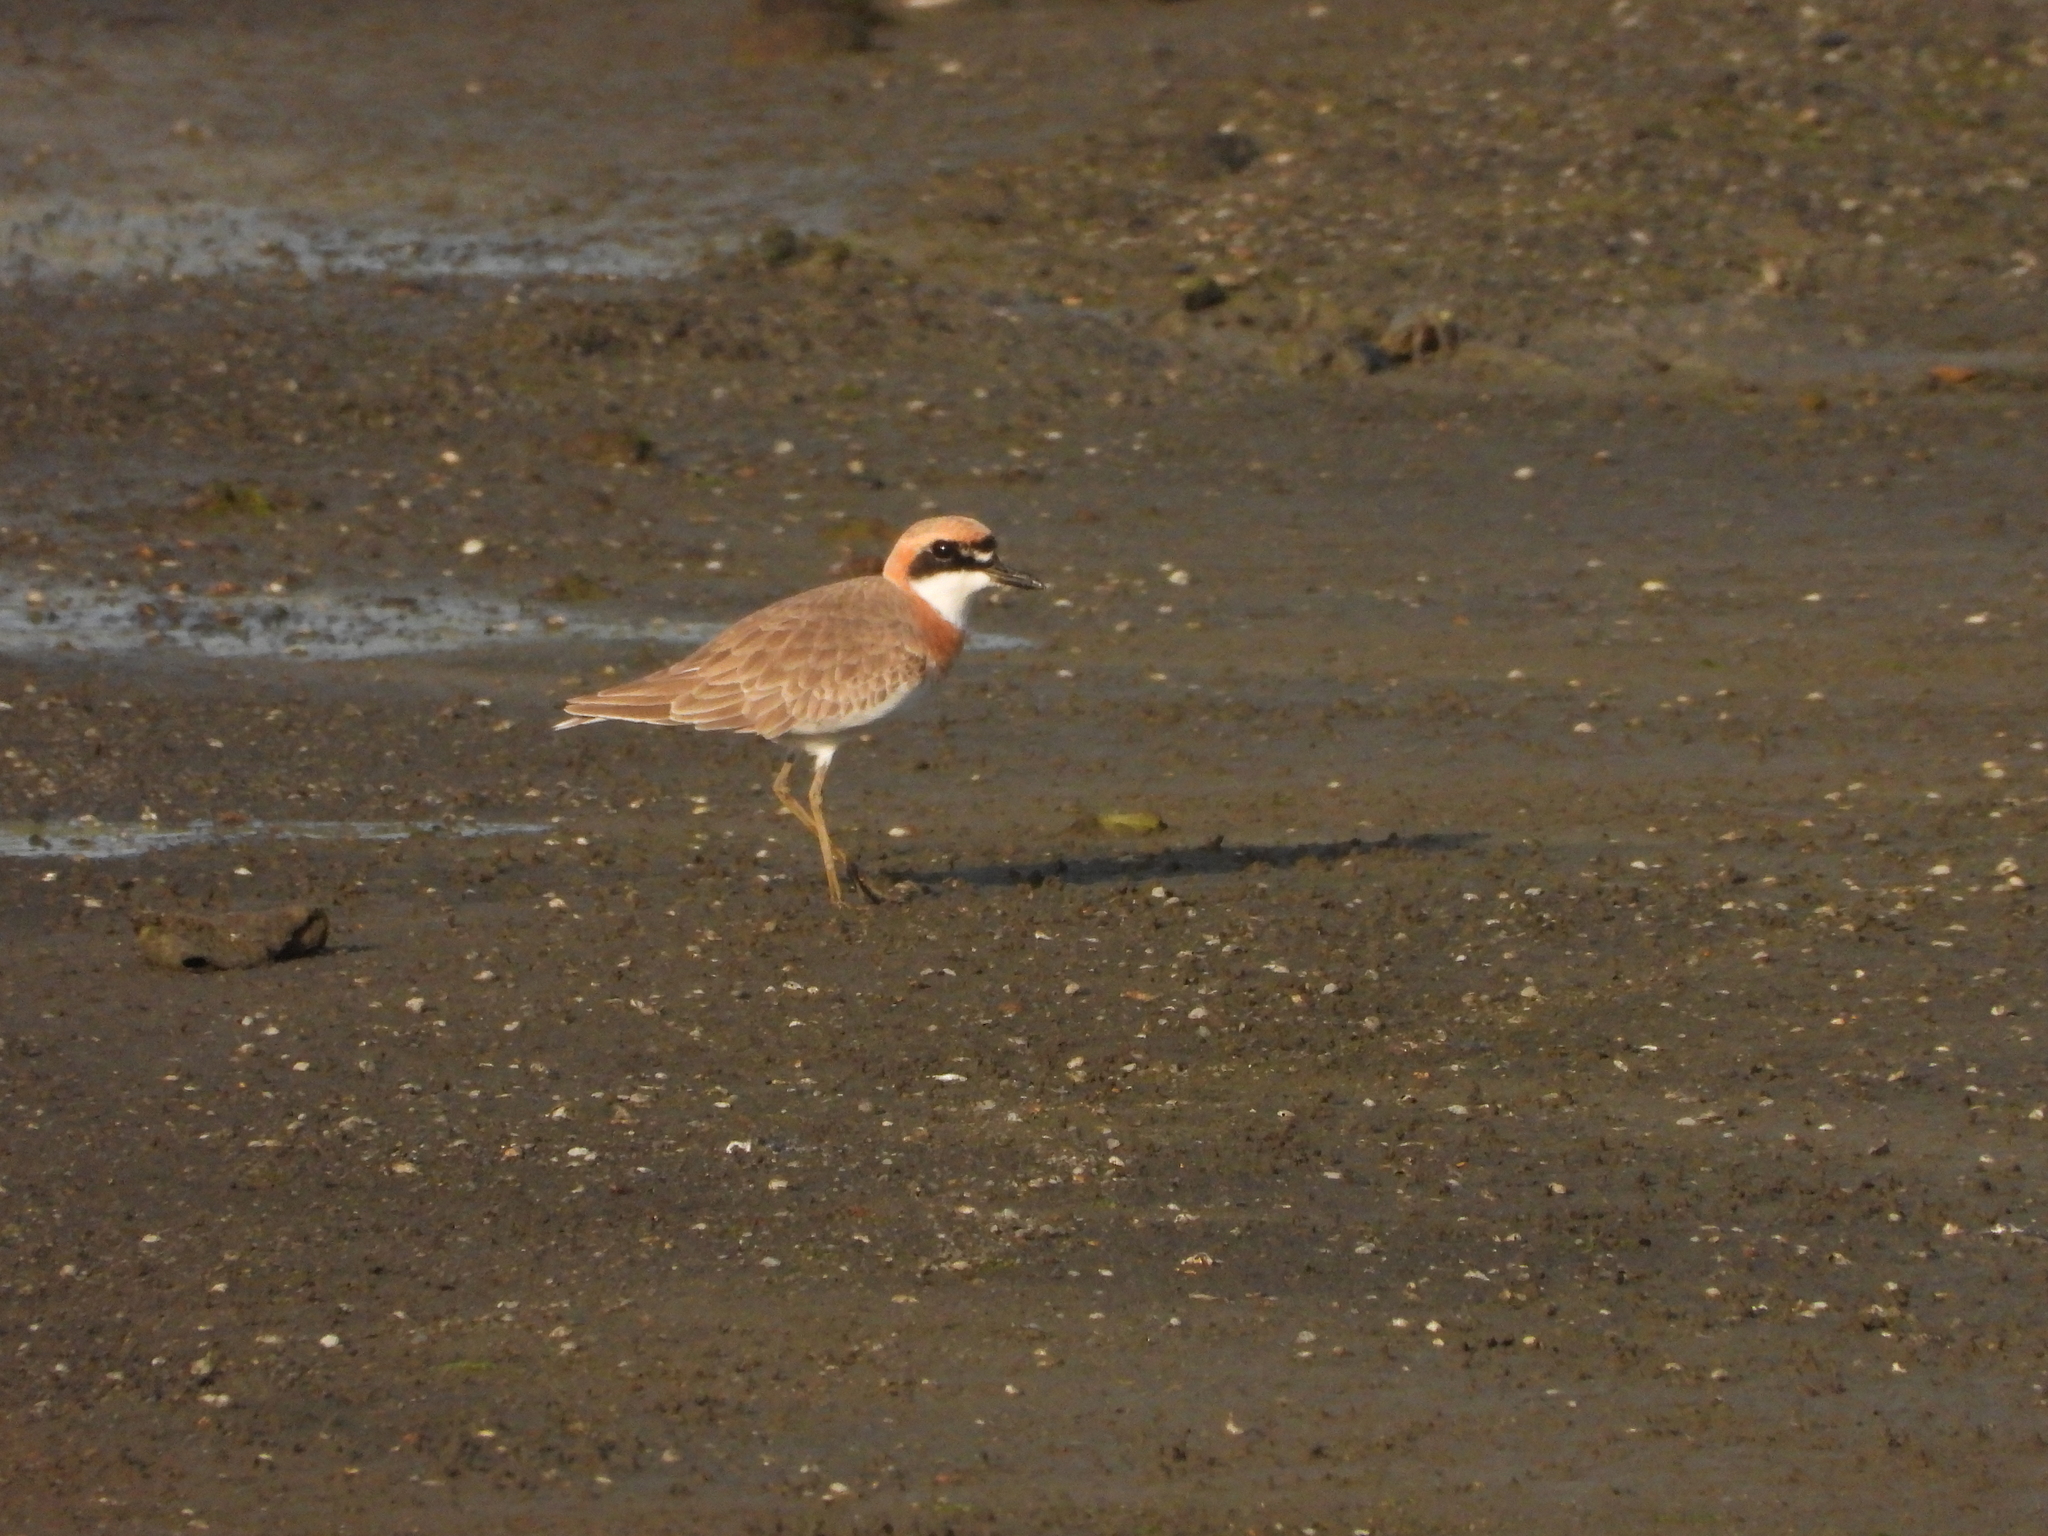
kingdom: Animalia
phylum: Chordata
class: Aves
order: Charadriiformes
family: Charadriidae
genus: Charadrius
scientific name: Charadrius leschenaultii
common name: Greater sand plover
